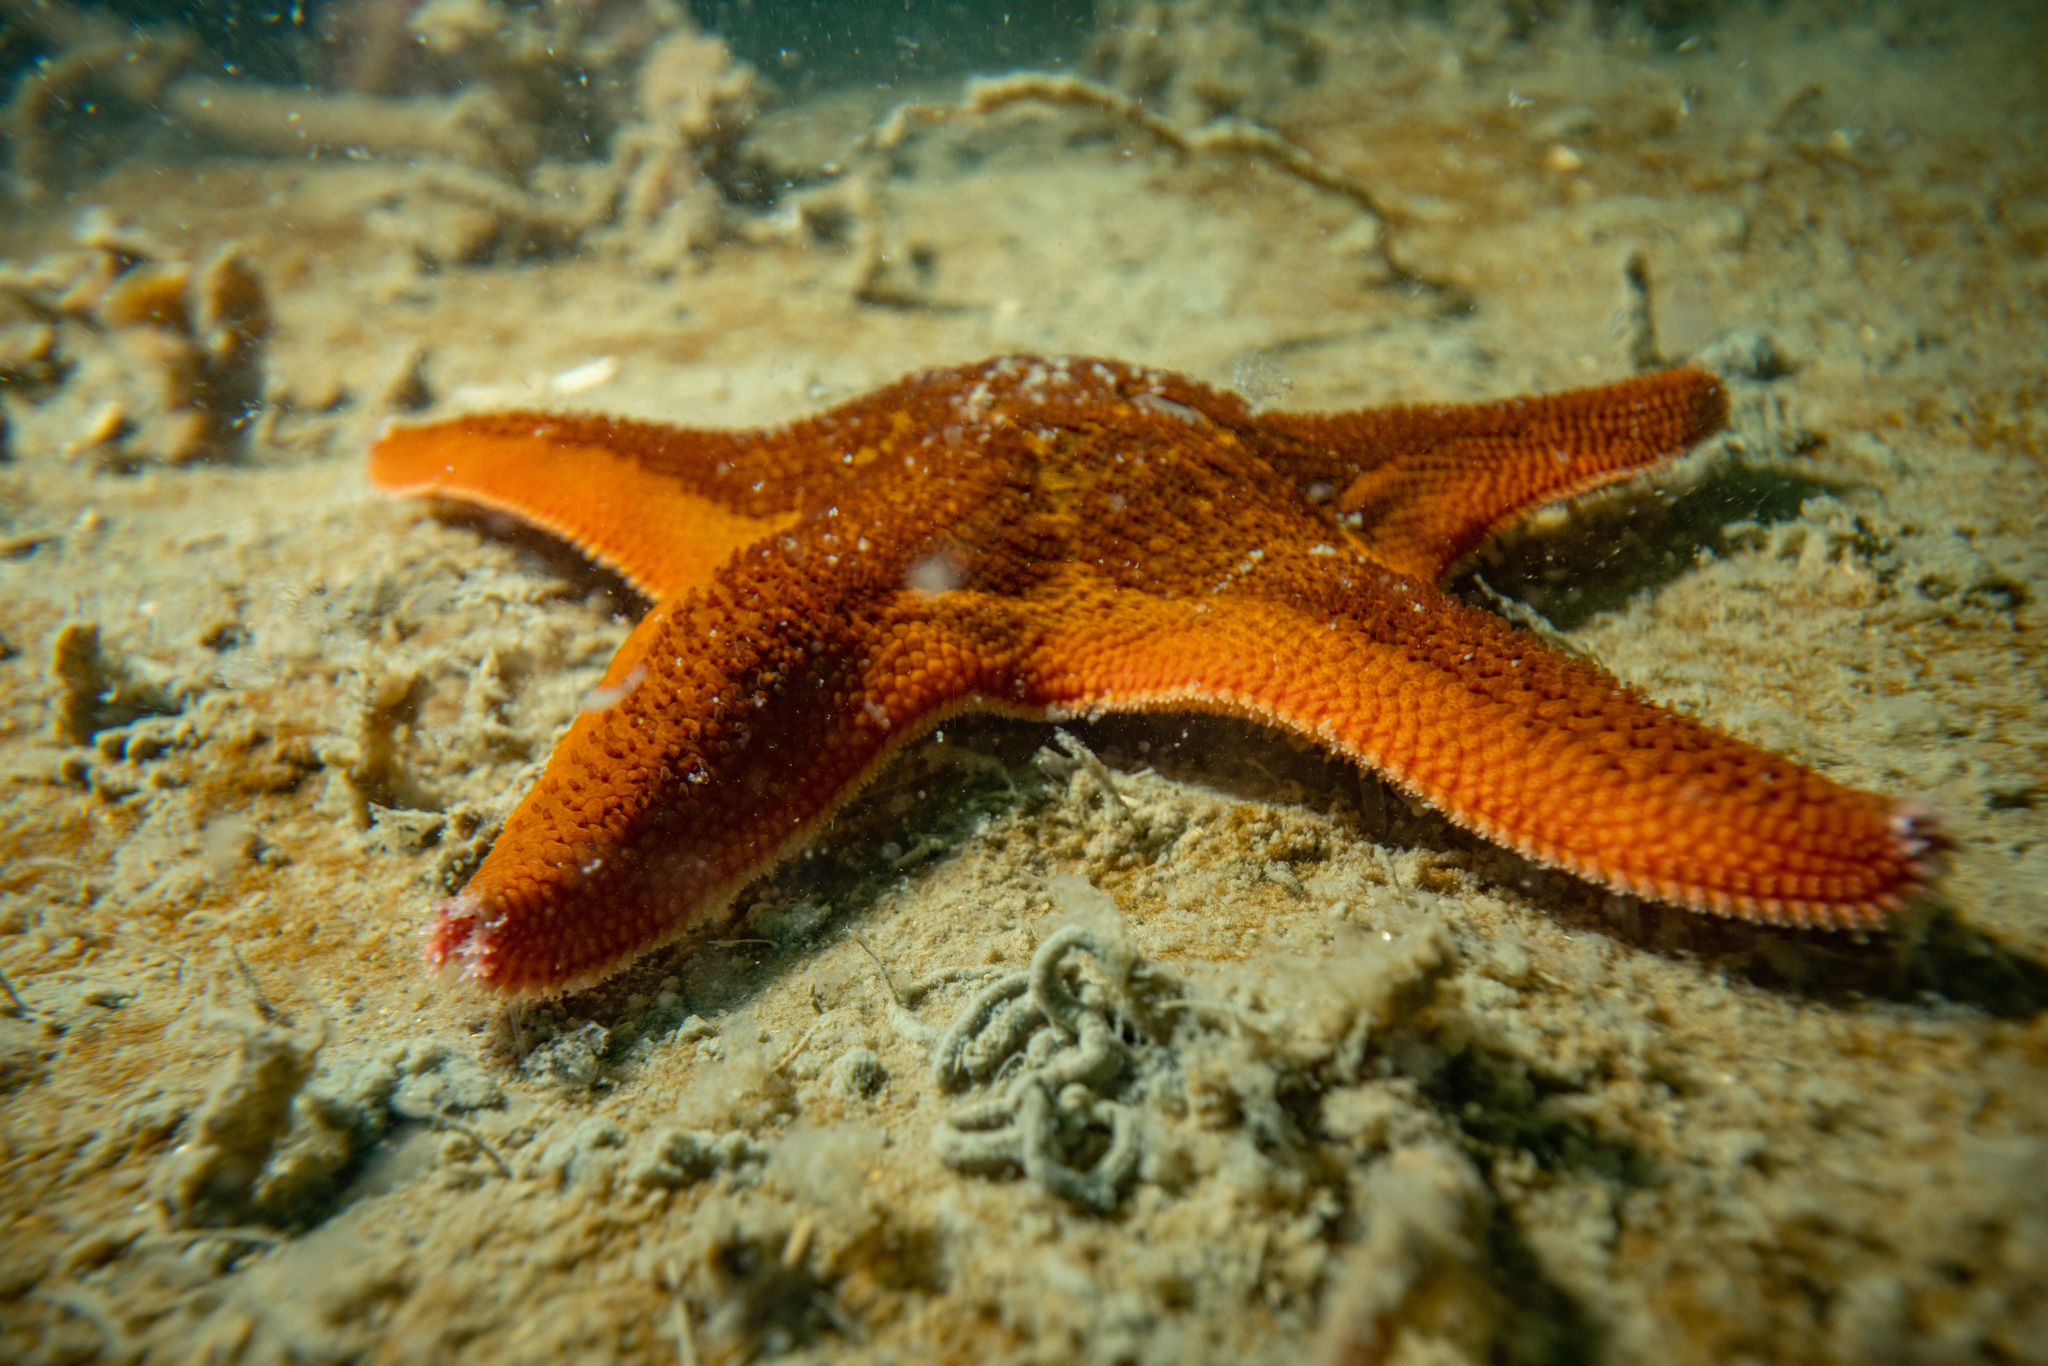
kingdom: Animalia
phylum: Echinodermata
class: Asteroidea
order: Valvatida
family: Asterinidae
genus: Patiriella
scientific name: Patiriella regularis
